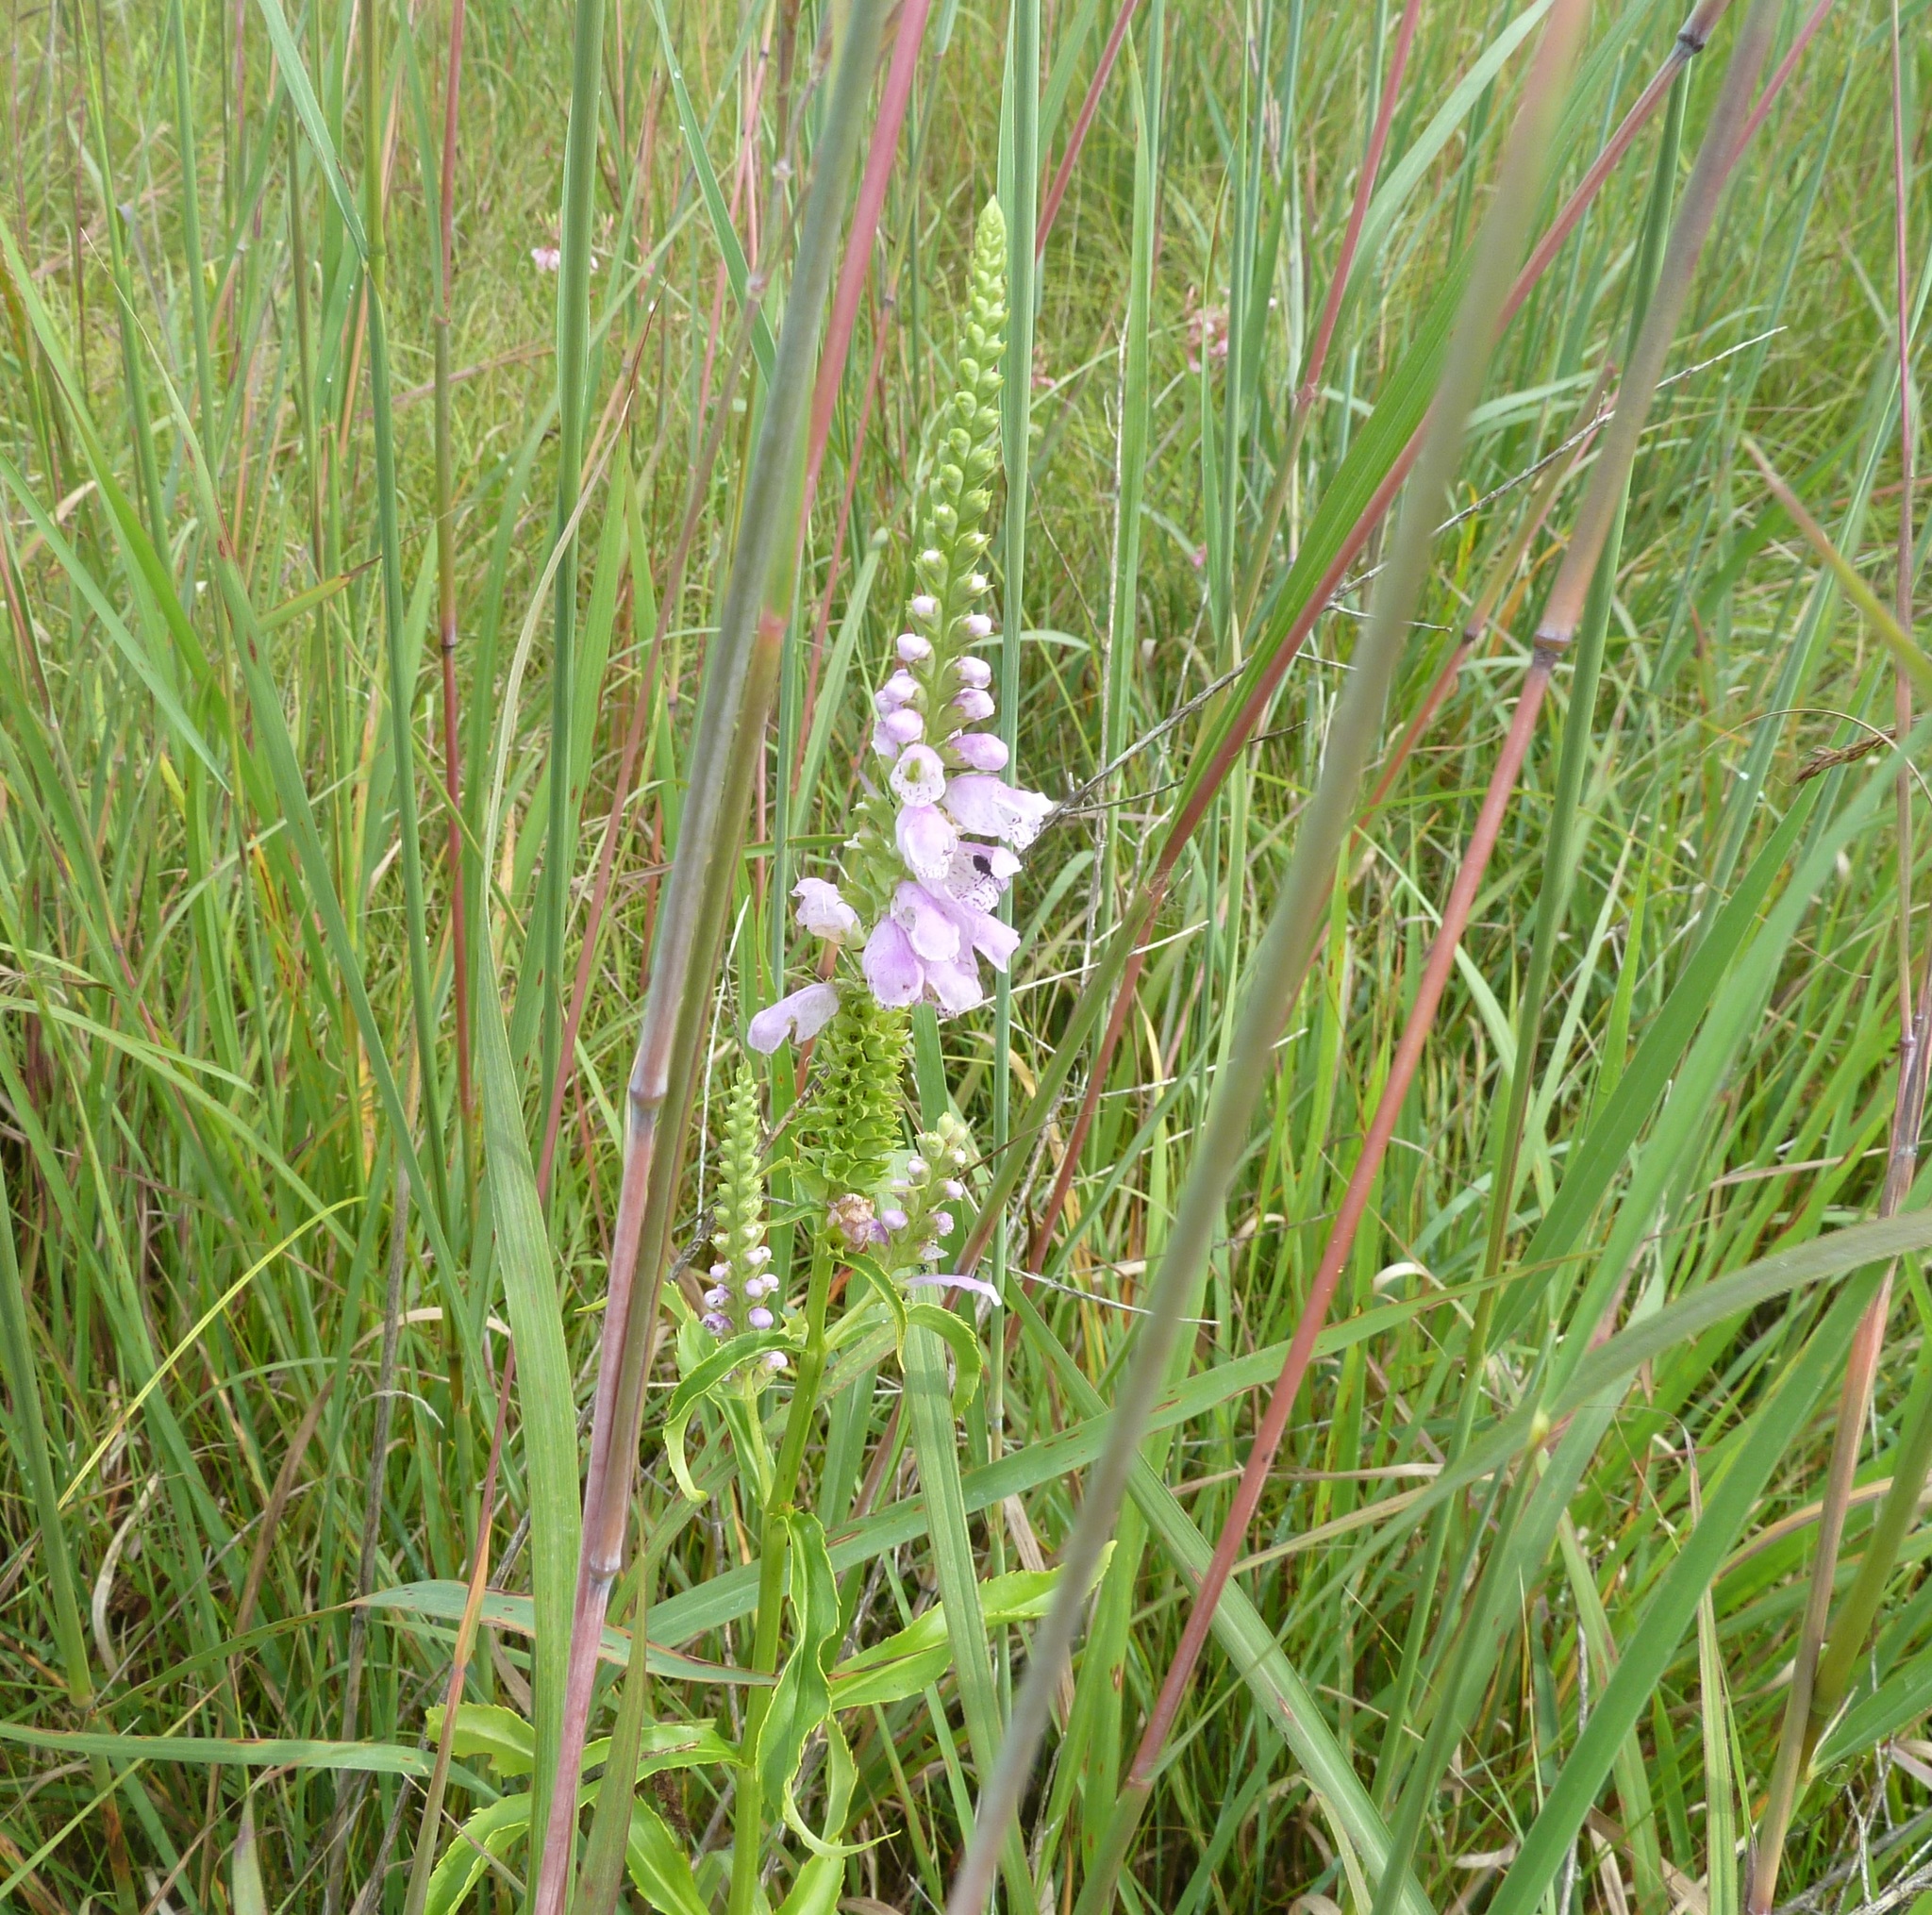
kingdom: Plantae
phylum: Tracheophyta
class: Magnoliopsida
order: Lamiales
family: Lamiaceae
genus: Physostegia
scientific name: Physostegia virginiana
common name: Obedient-plant
